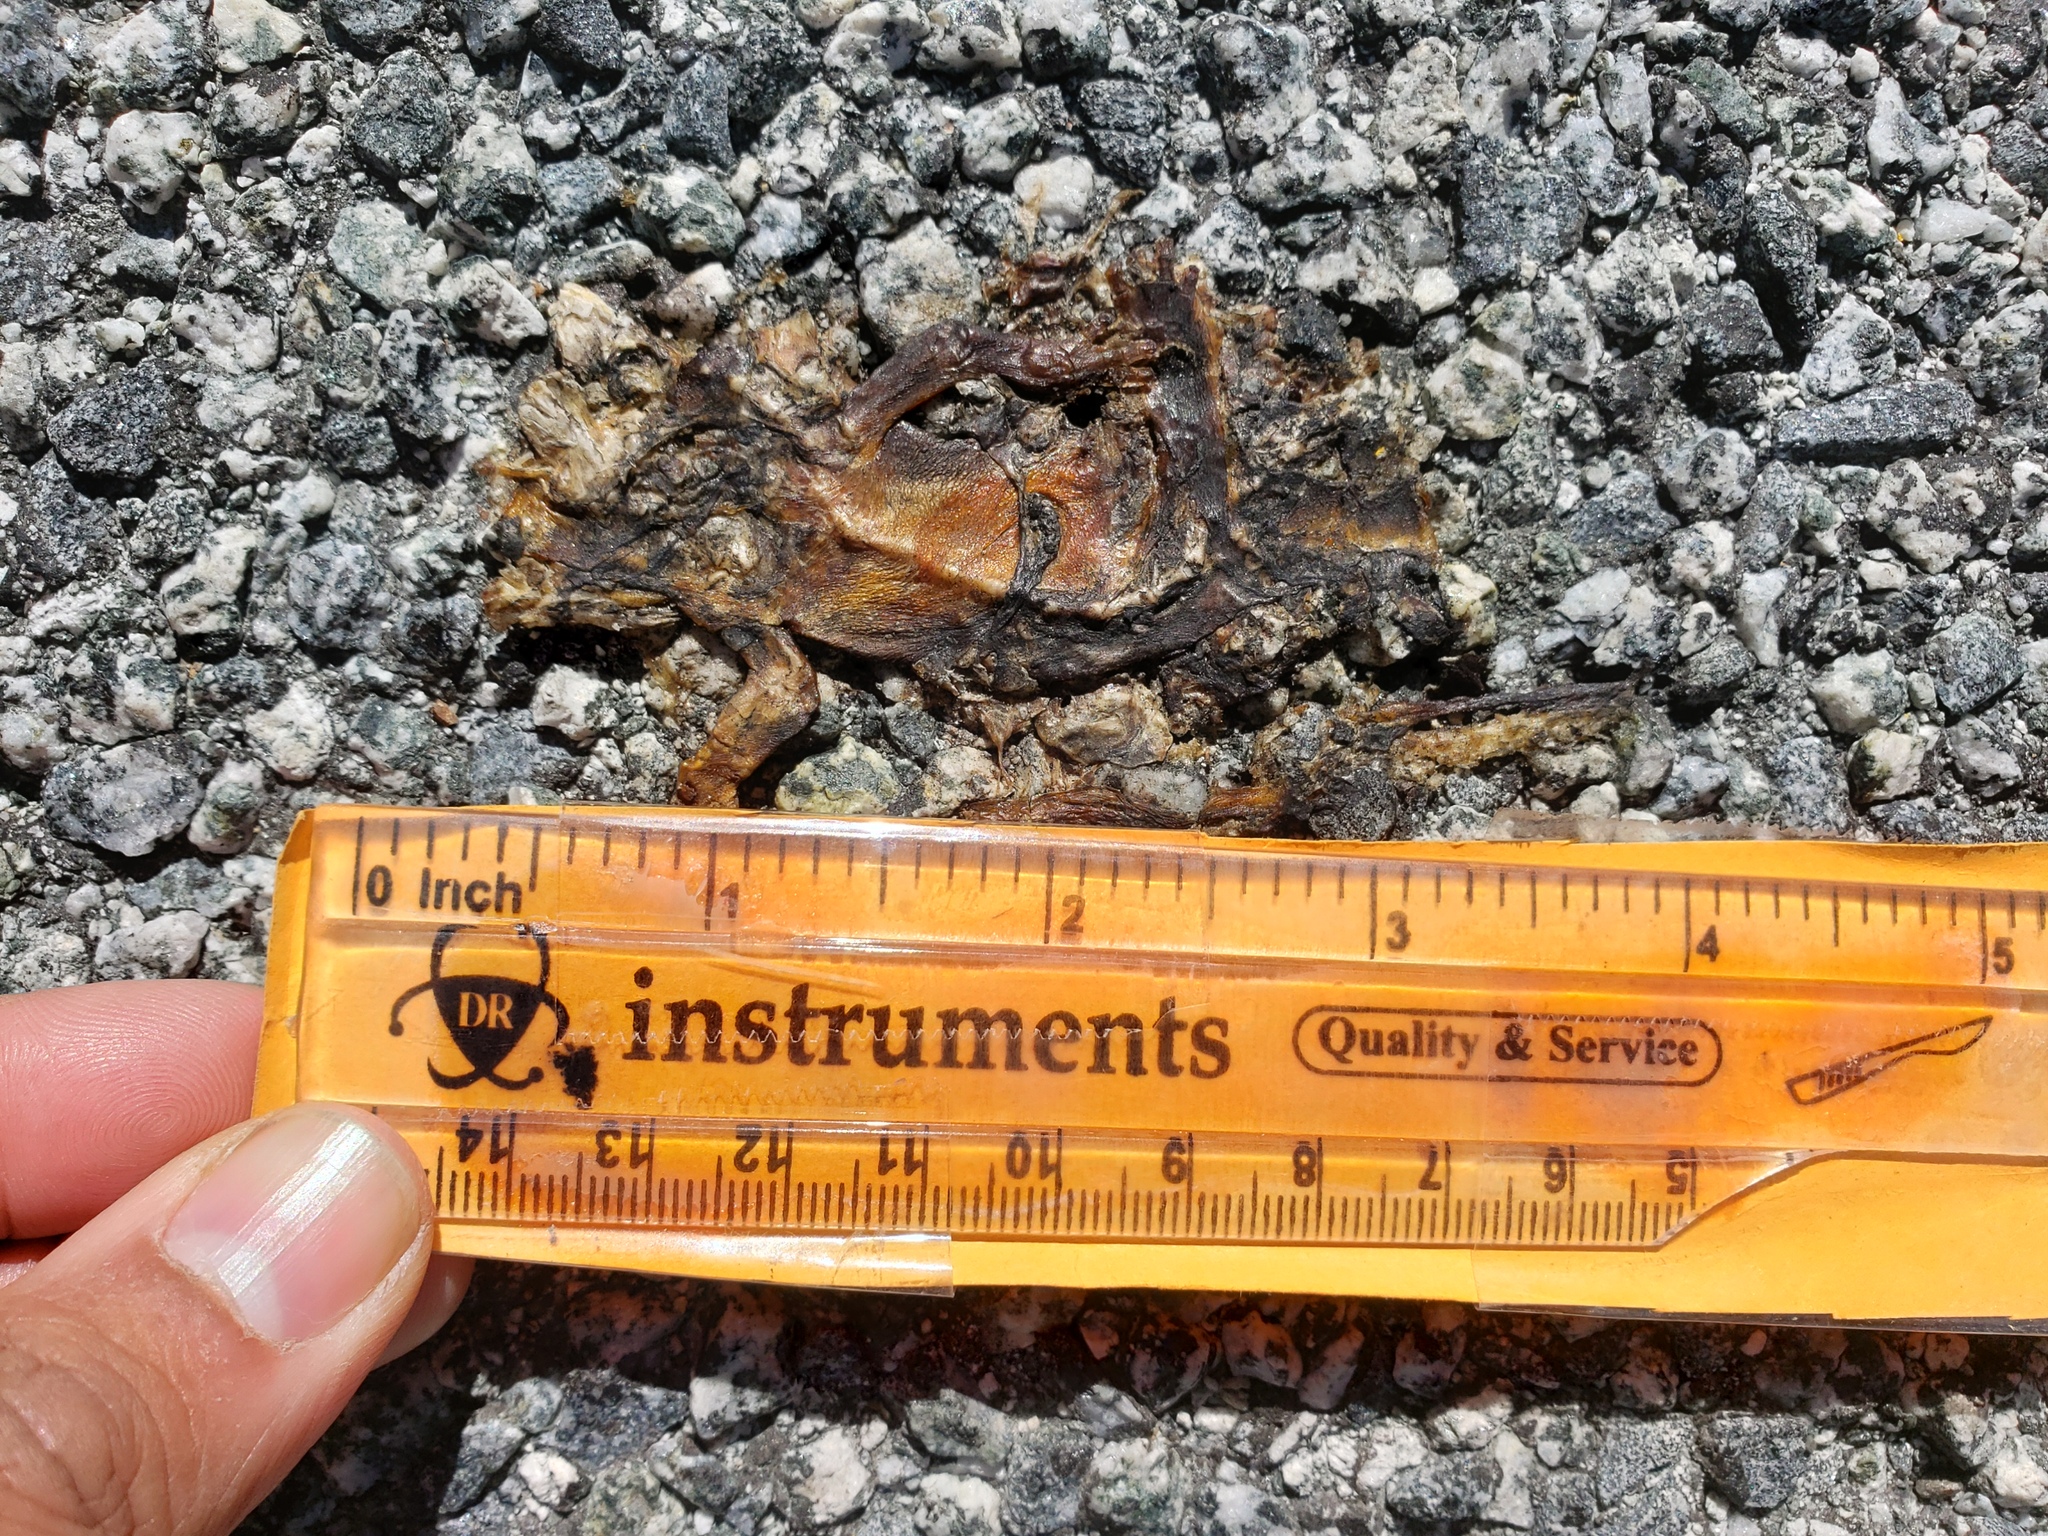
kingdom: Animalia
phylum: Chordata
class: Amphibia
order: Caudata
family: Salamandridae
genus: Taricha
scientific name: Taricha
